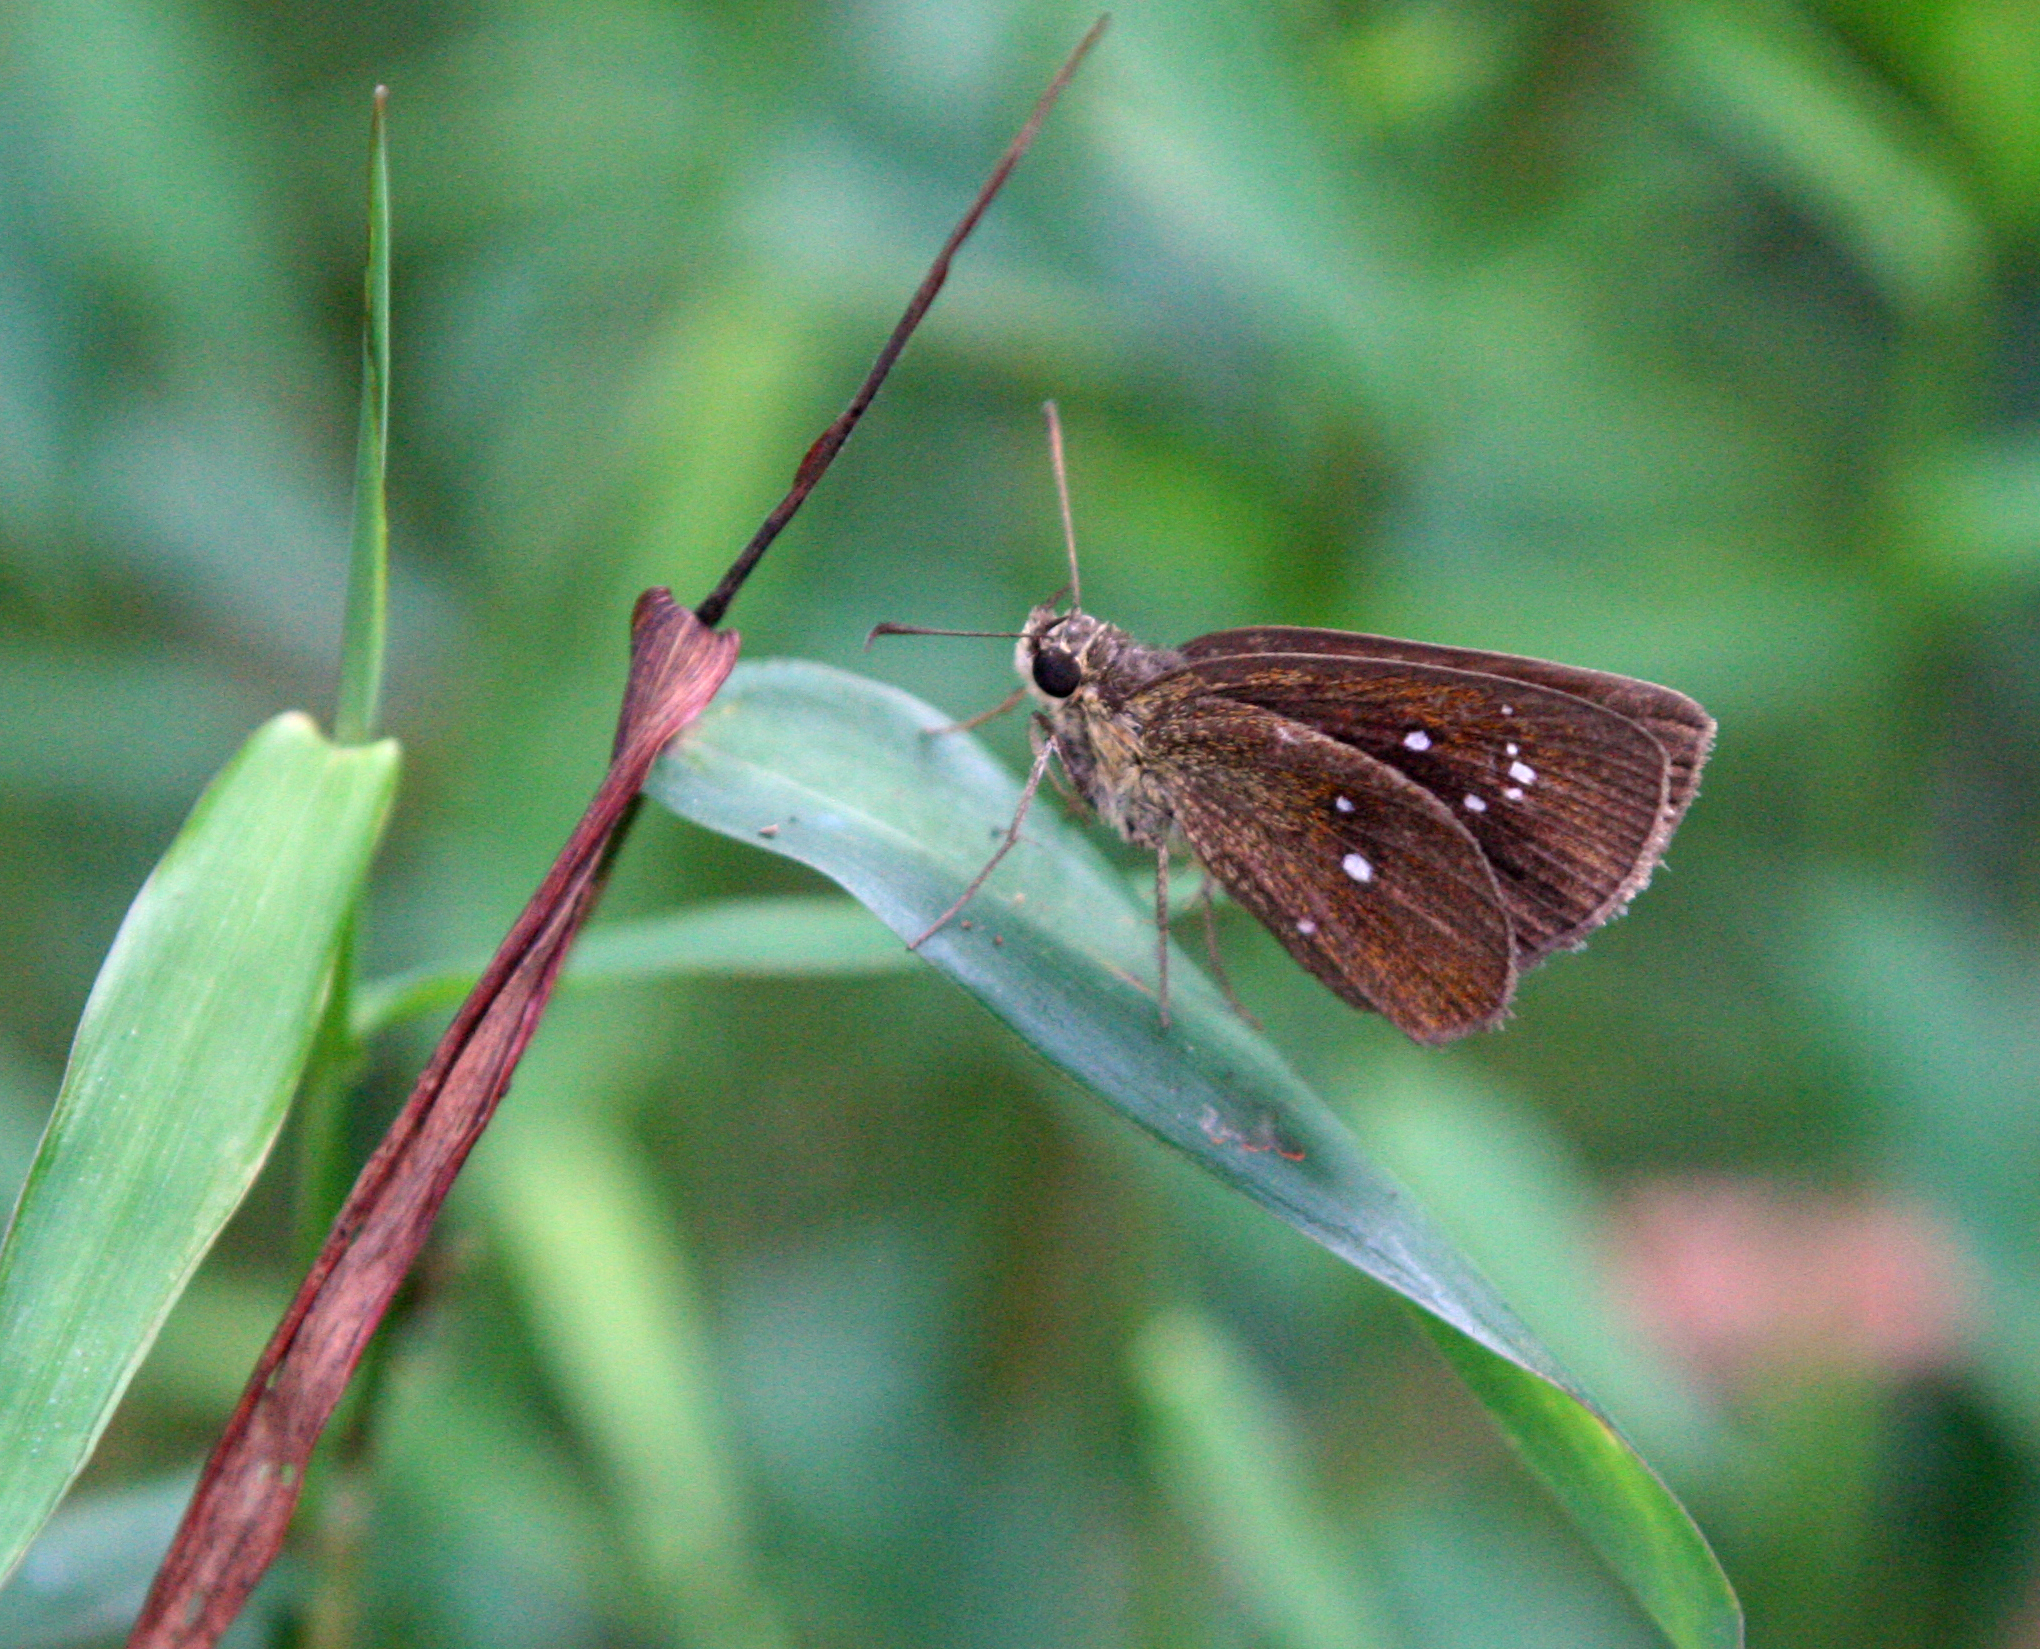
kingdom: Animalia
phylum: Arthropoda
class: Insecta
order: Lepidoptera
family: Hesperiidae
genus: Iambrix
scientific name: Iambrix salsala
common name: Chestnut bob
